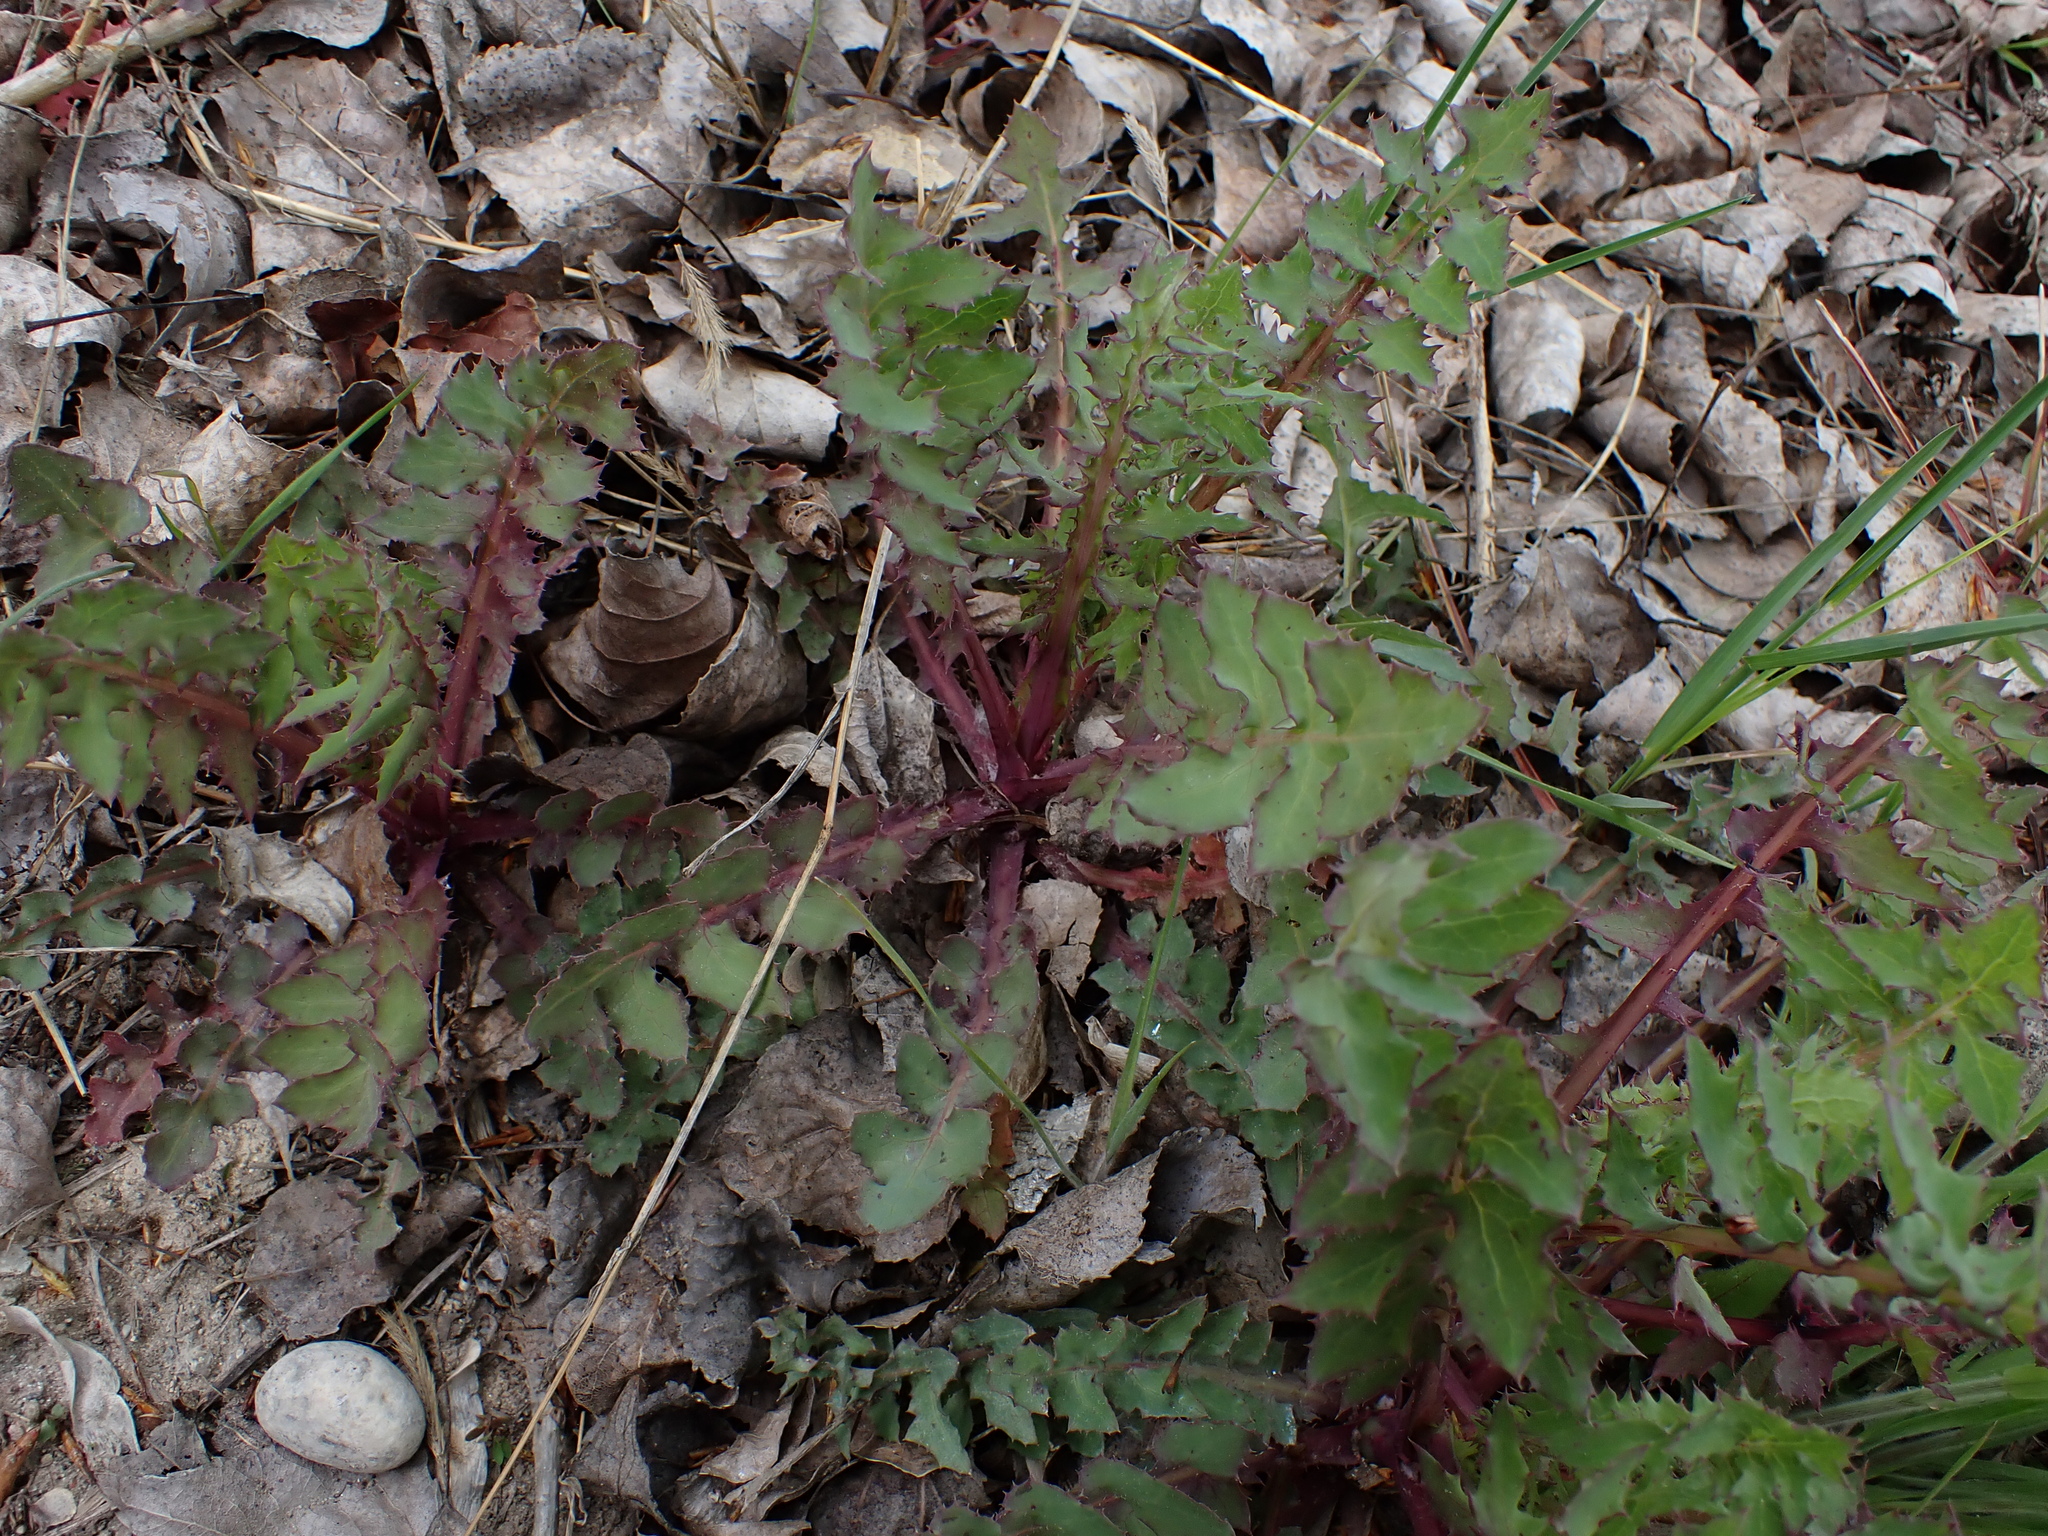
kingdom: Plantae
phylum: Tracheophyta
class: Magnoliopsida
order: Asterales
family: Asteraceae
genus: Sonchus
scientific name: Sonchus oleraceus
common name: Common sowthistle
